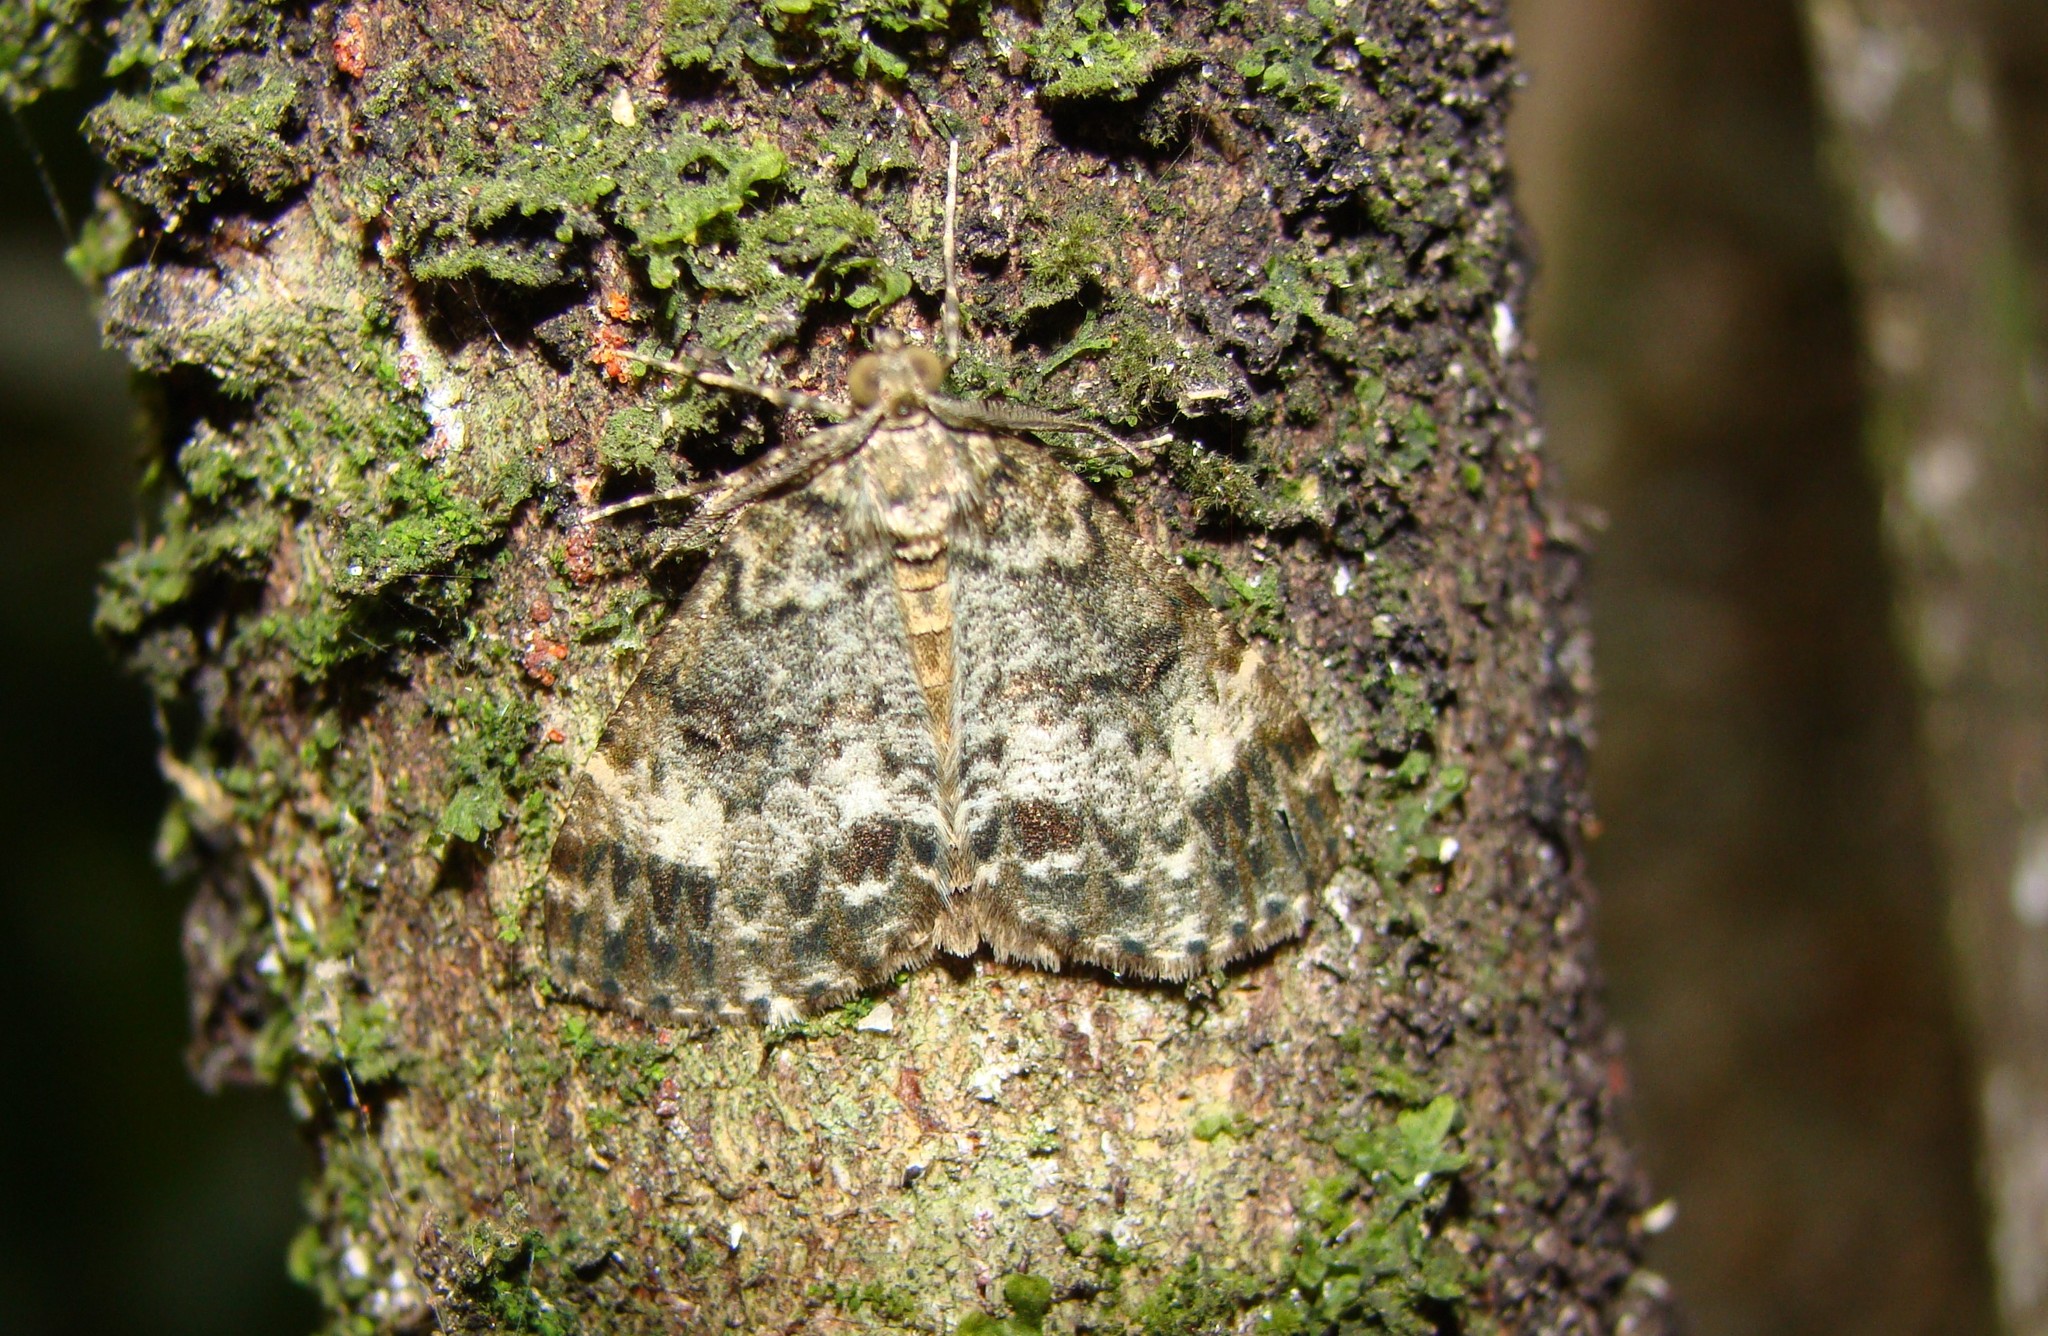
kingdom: Animalia
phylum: Arthropoda
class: Insecta
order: Lepidoptera
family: Geometridae
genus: Pseudocoremia
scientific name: Pseudocoremia indistincta
